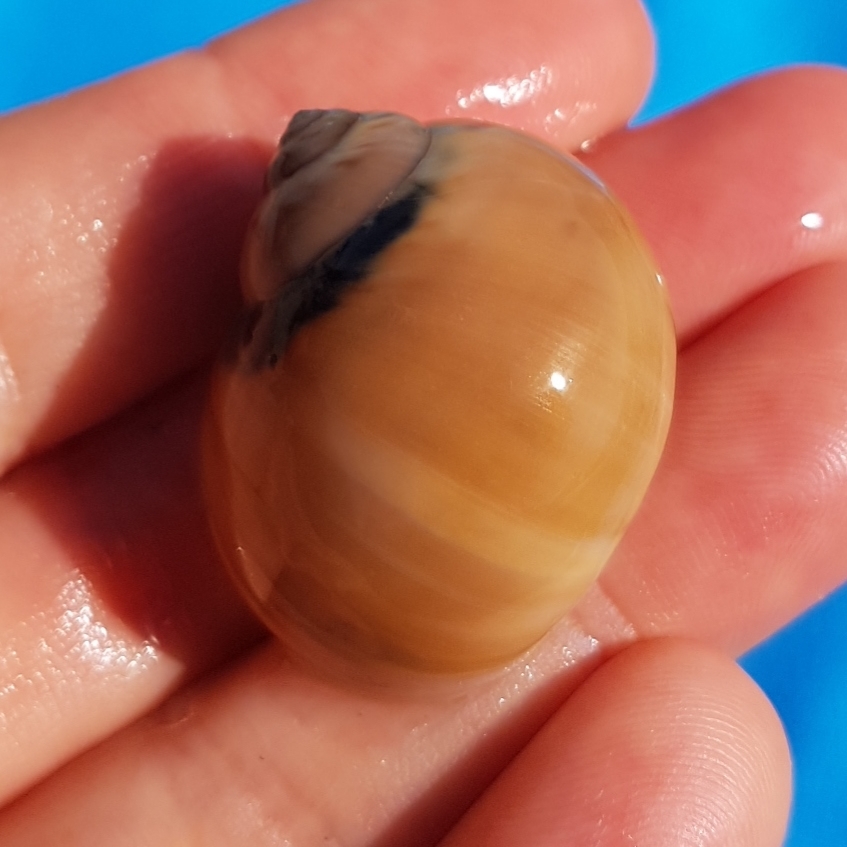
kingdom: Animalia
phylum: Mollusca
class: Gastropoda
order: Littorinimorpha
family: Naticidae
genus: Euspira
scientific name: Euspira catena
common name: Necklace shell
